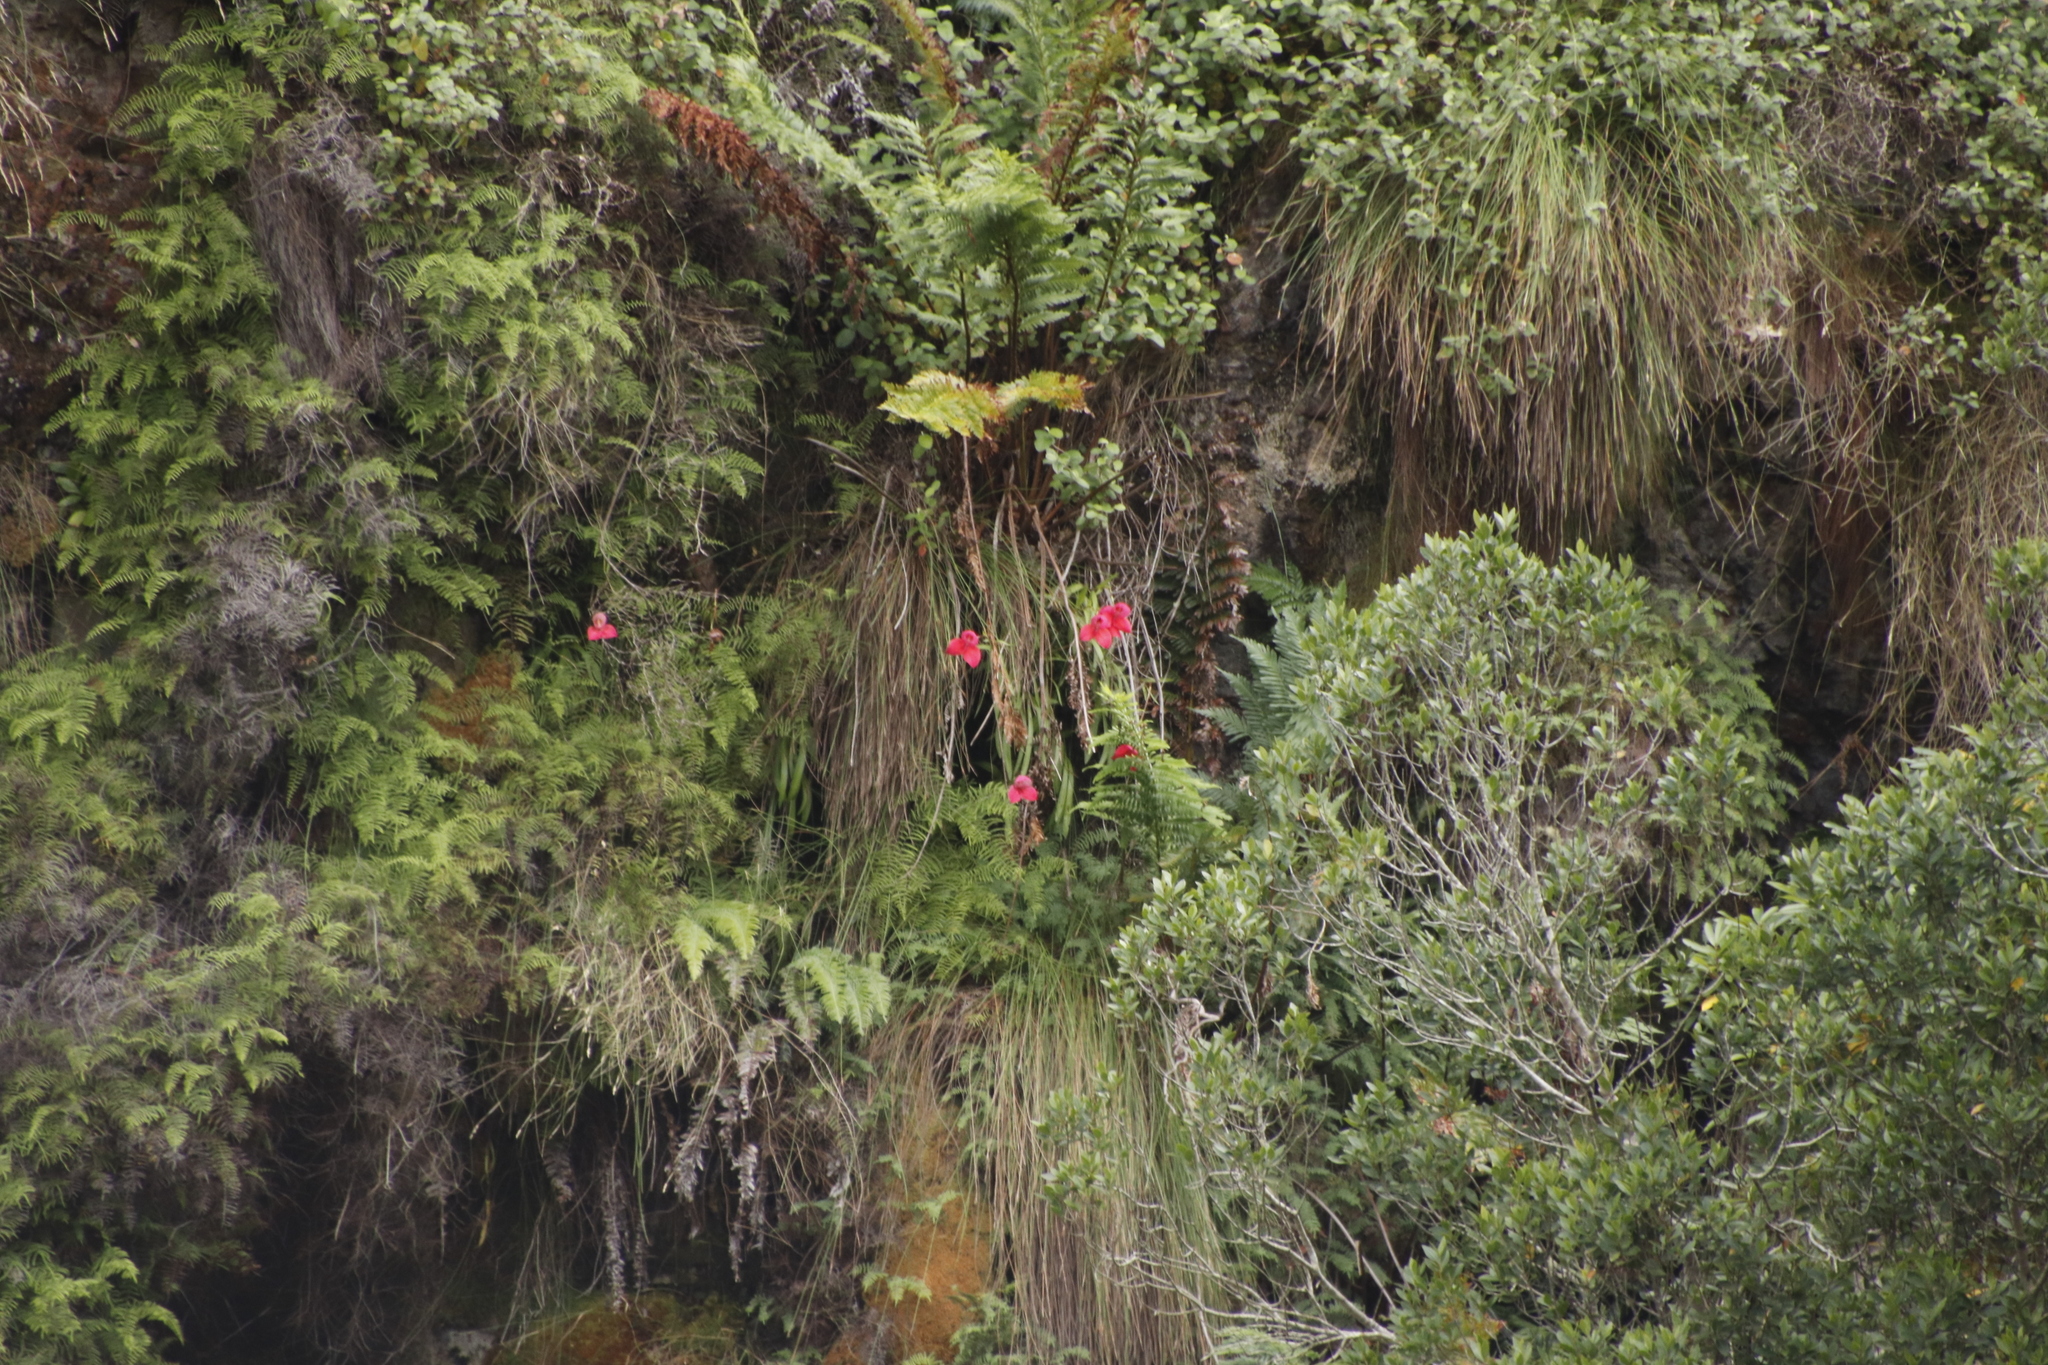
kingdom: Plantae
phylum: Tracheophyta
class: Polypodiopsida
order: Gleicheniales
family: Gleicheniaceae
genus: Gleichenia
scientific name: Gleichenia polypodioides
